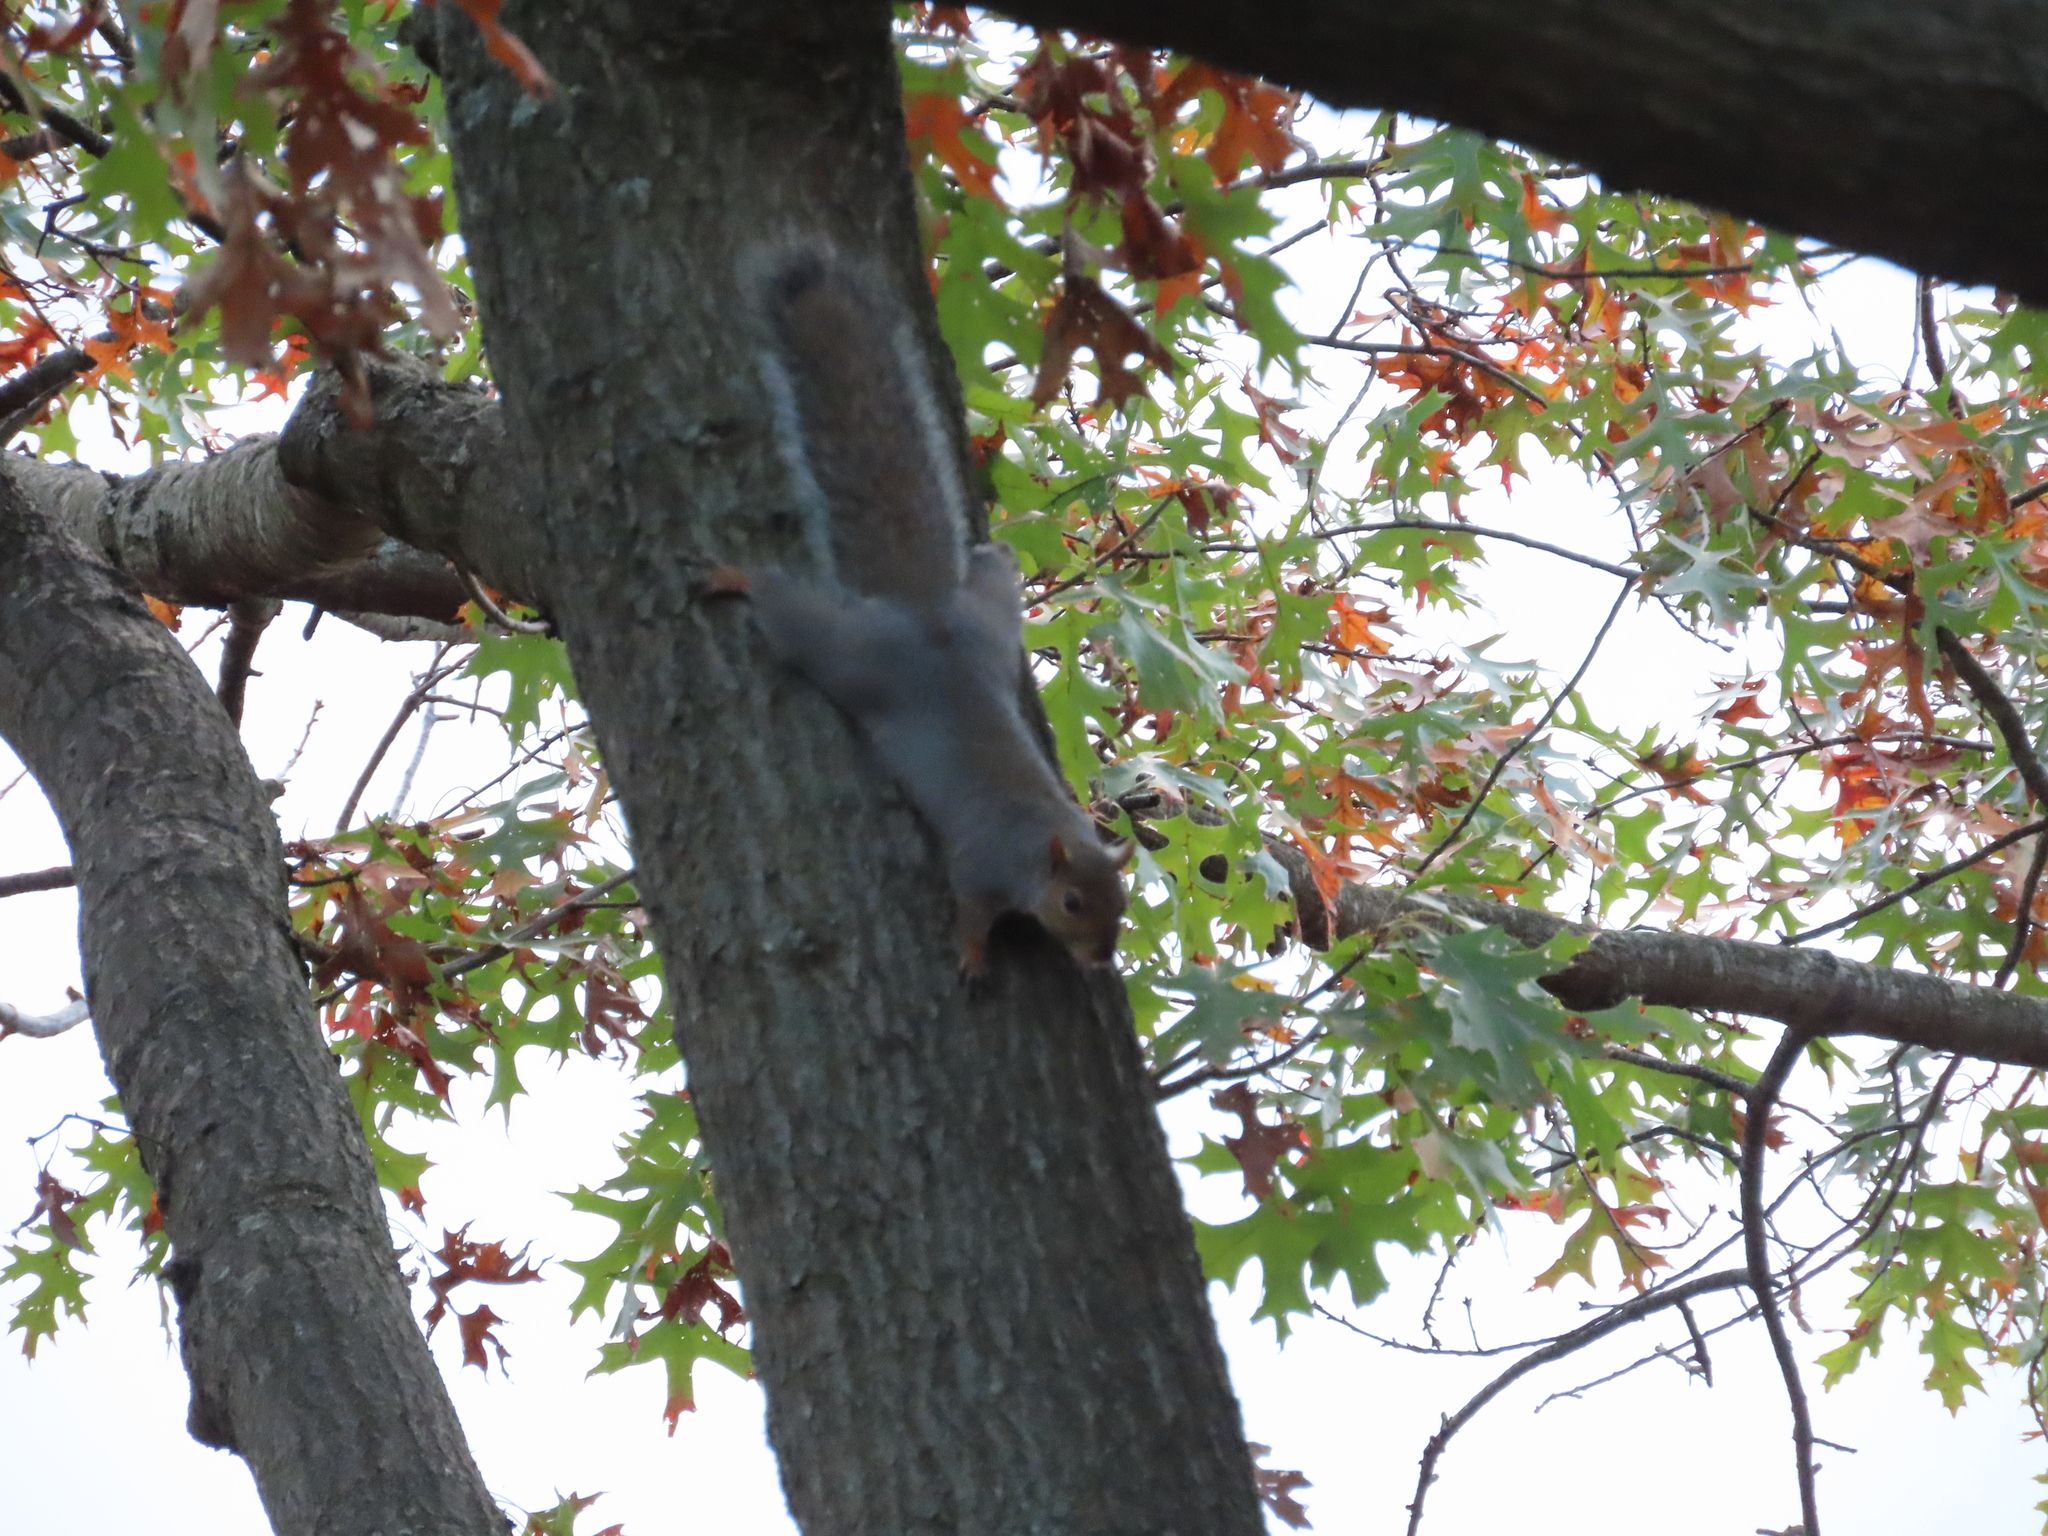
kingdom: Animalia
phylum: Chordata
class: Mammalia
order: Rodentia
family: Sciuridae
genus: Sciurus
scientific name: Sciurus carolinensis
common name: Eastern gray squirrel
